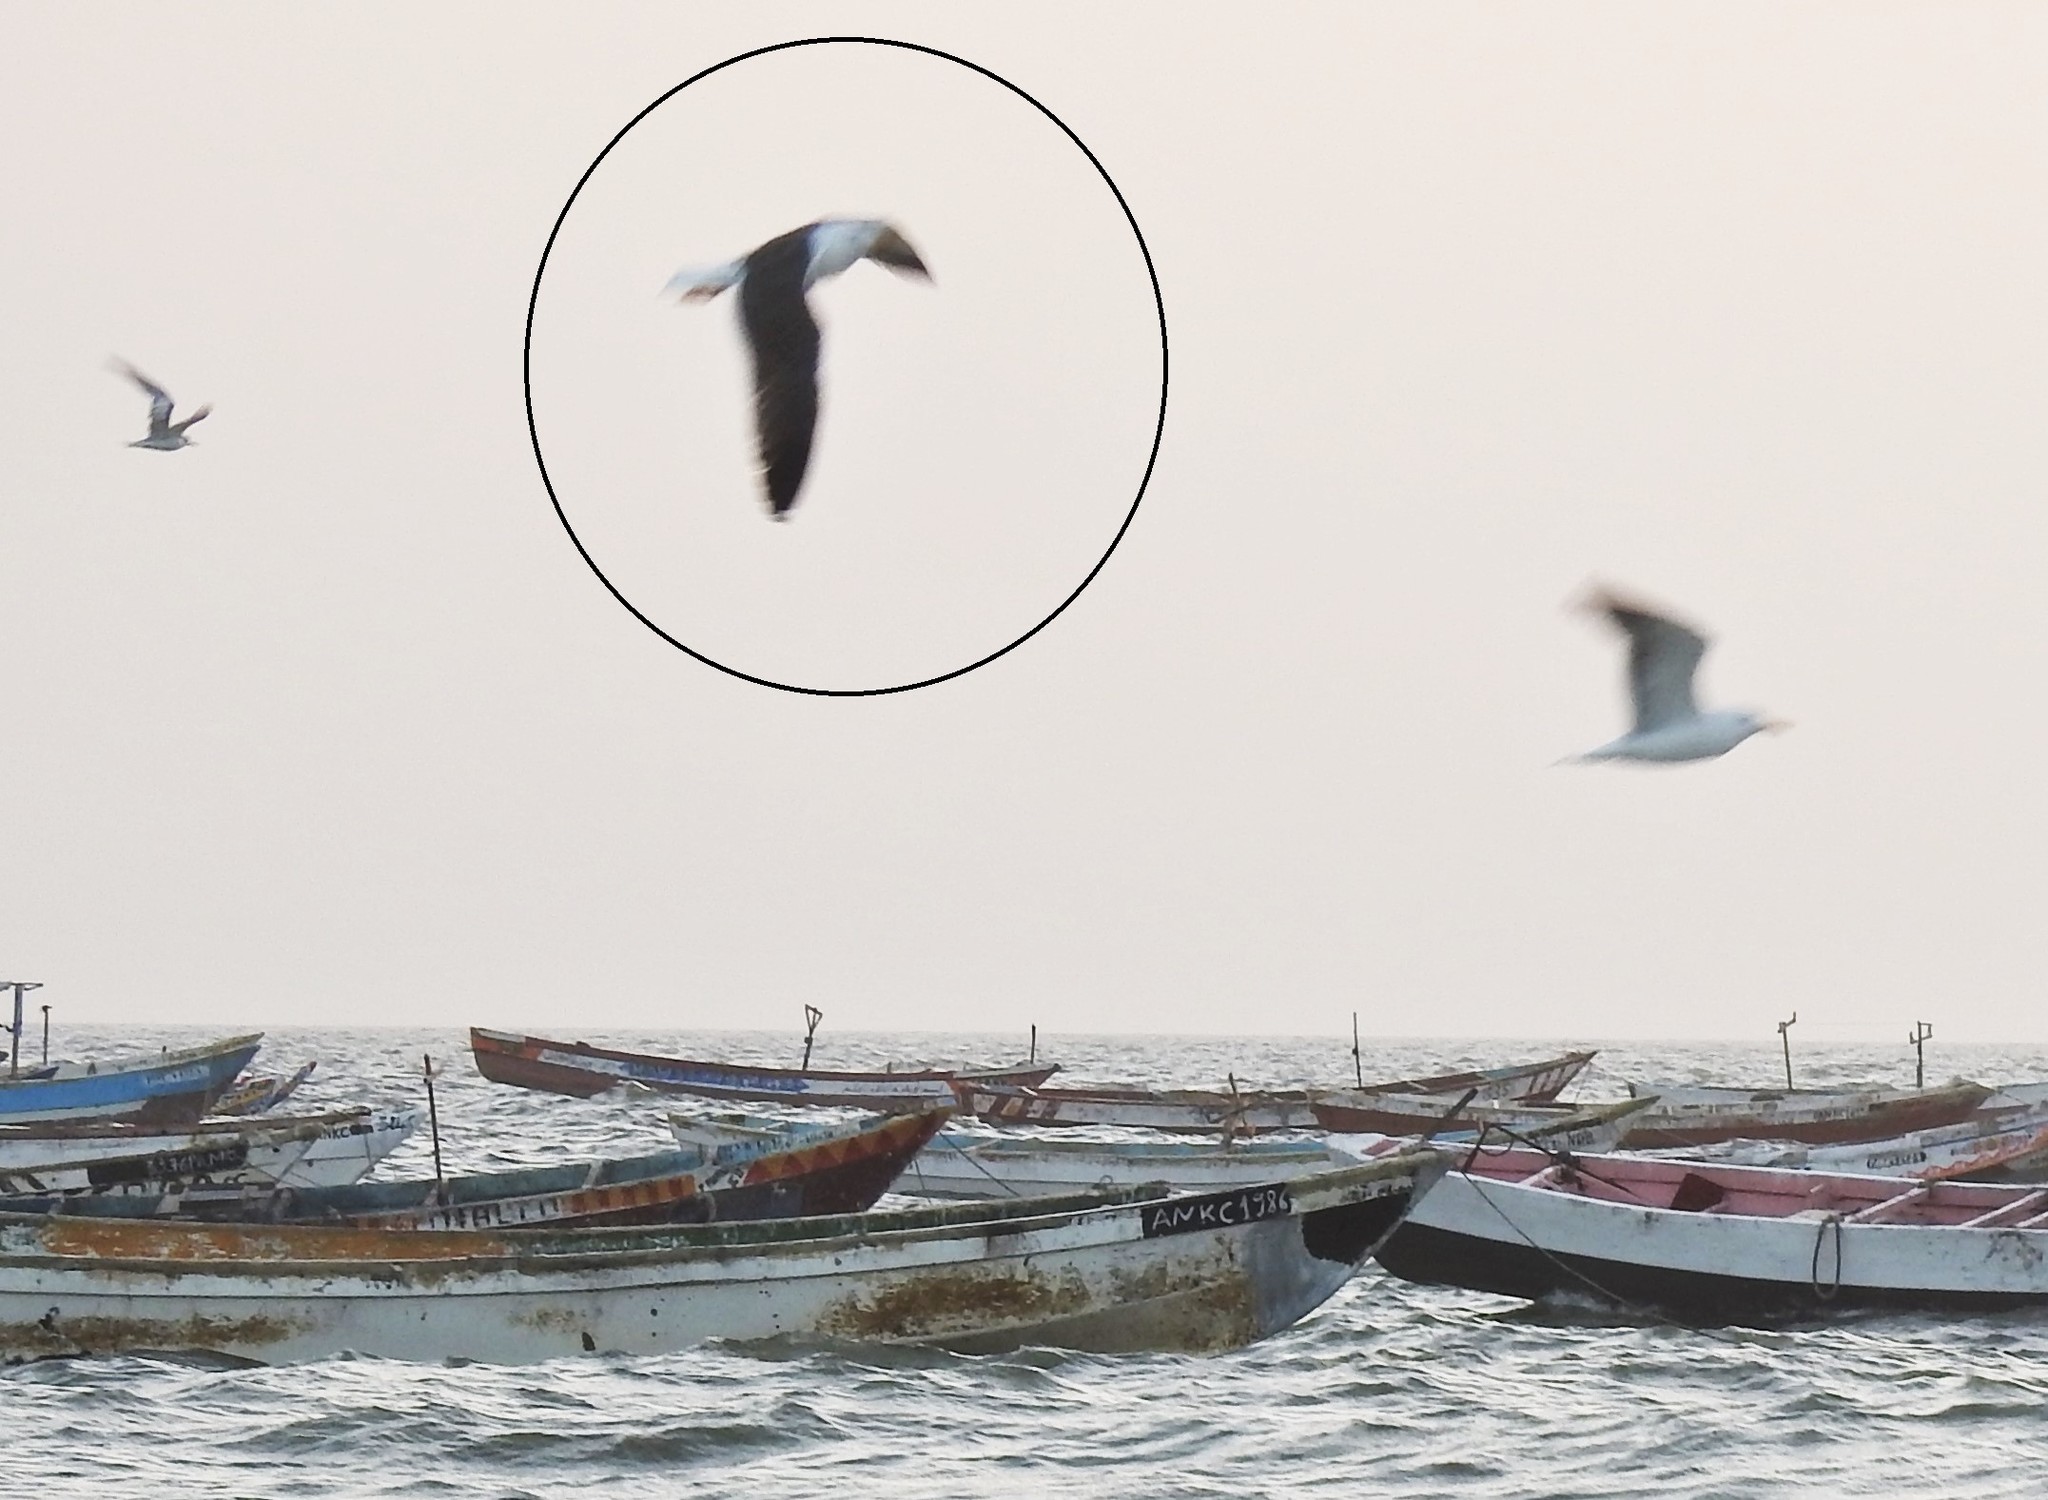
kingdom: Animalia
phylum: Chordata
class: Aves
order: Charadriiformes
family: Laridae
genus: Larus
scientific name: Larus fuscus
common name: Lesser black-backed gull
